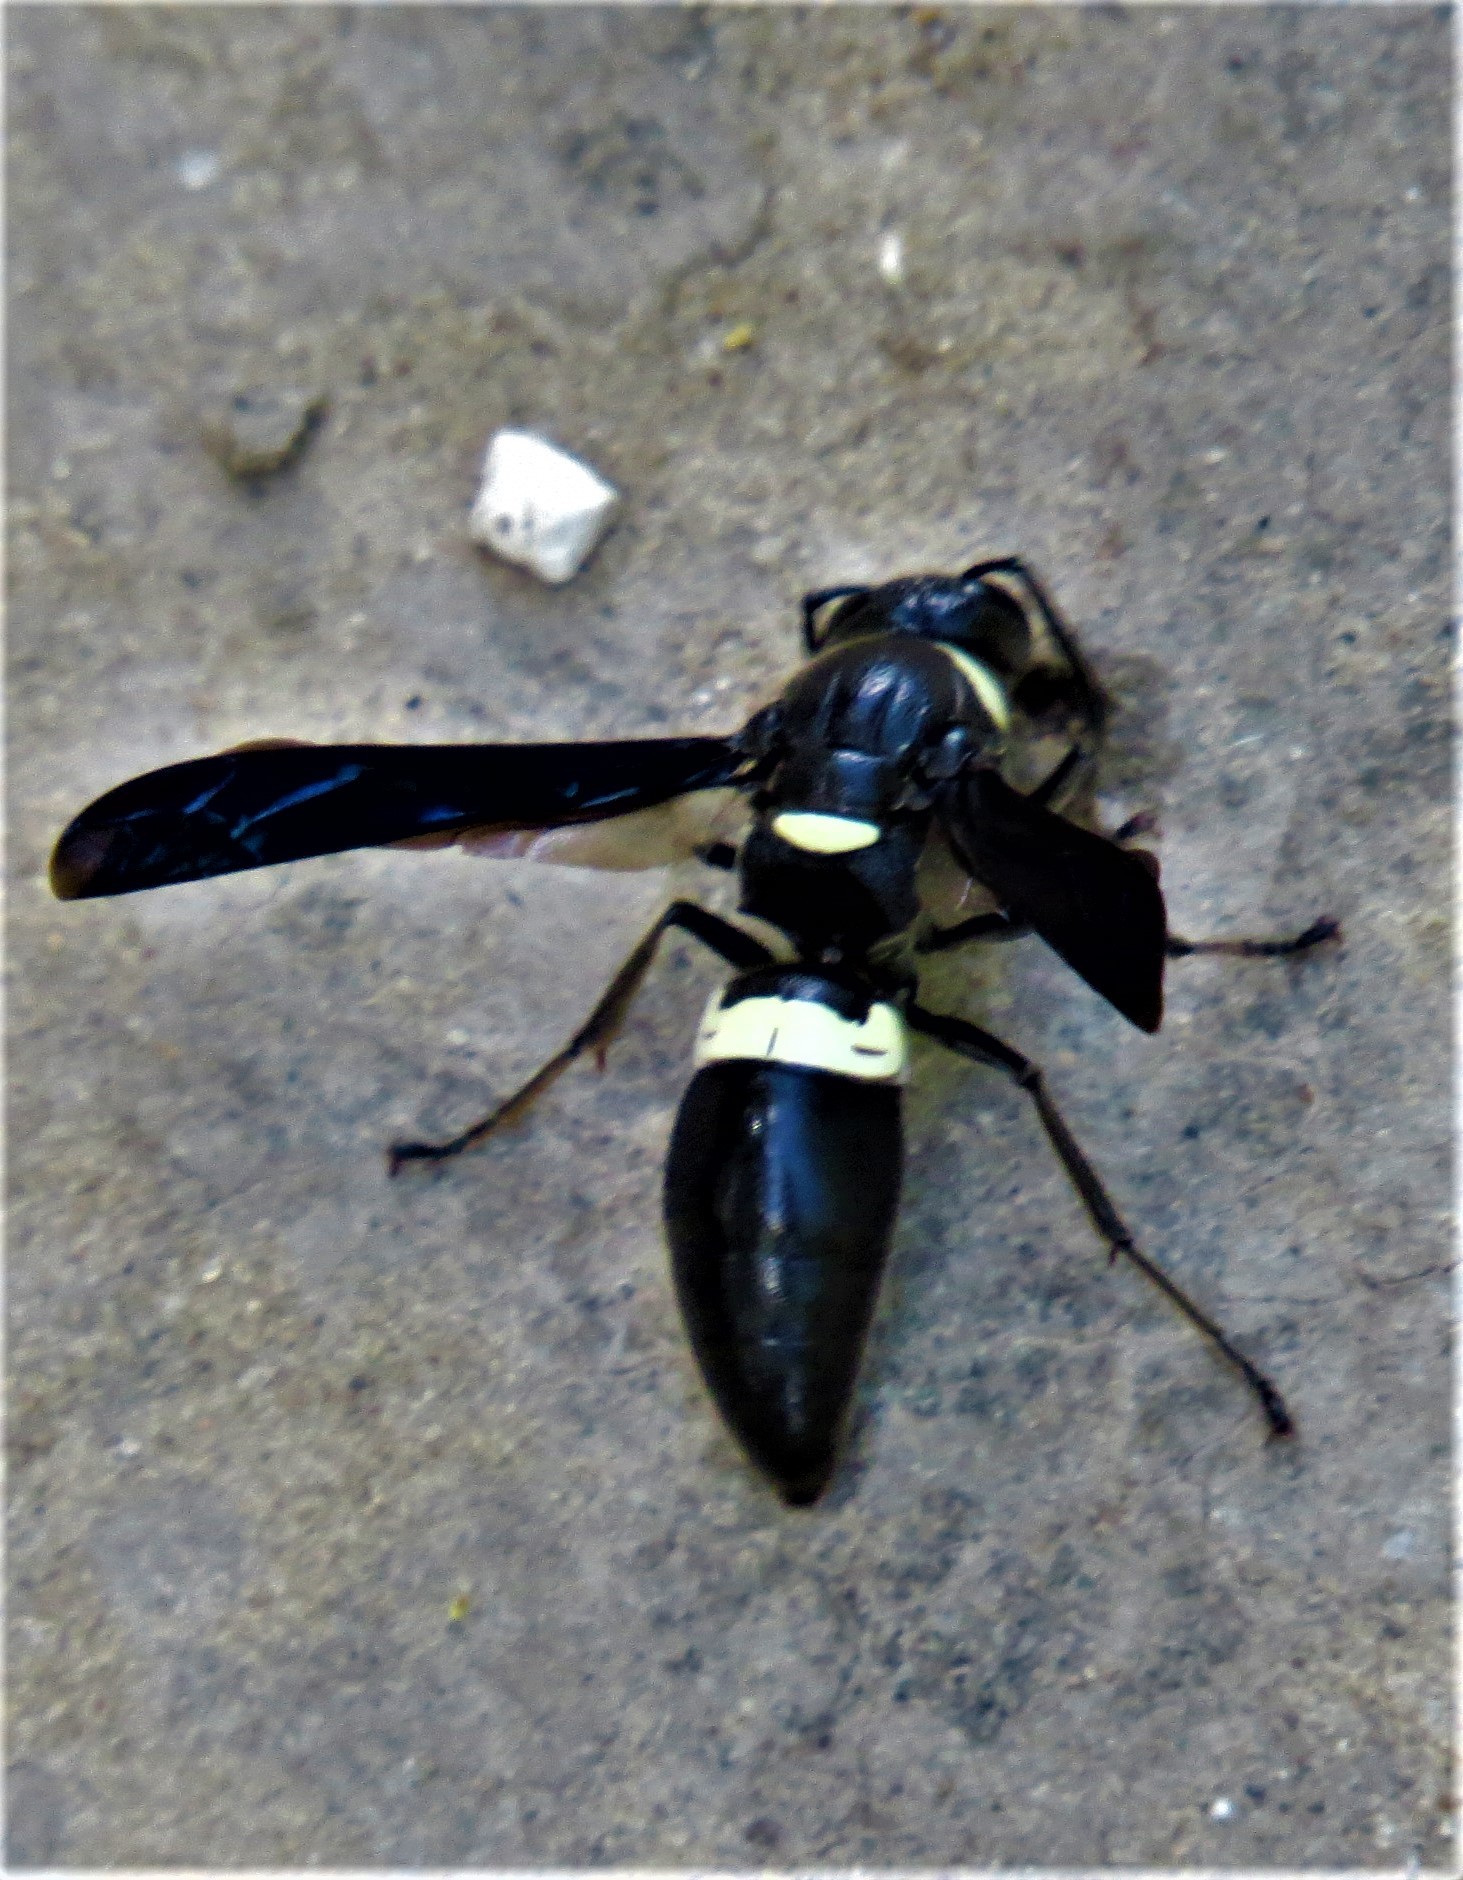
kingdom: Animalia
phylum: Arthropoda
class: Insecta
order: Hymenoptera
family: Eumenidae
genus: Monobia
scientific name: Monobia quadridens
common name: Four-toothed mason wasp
